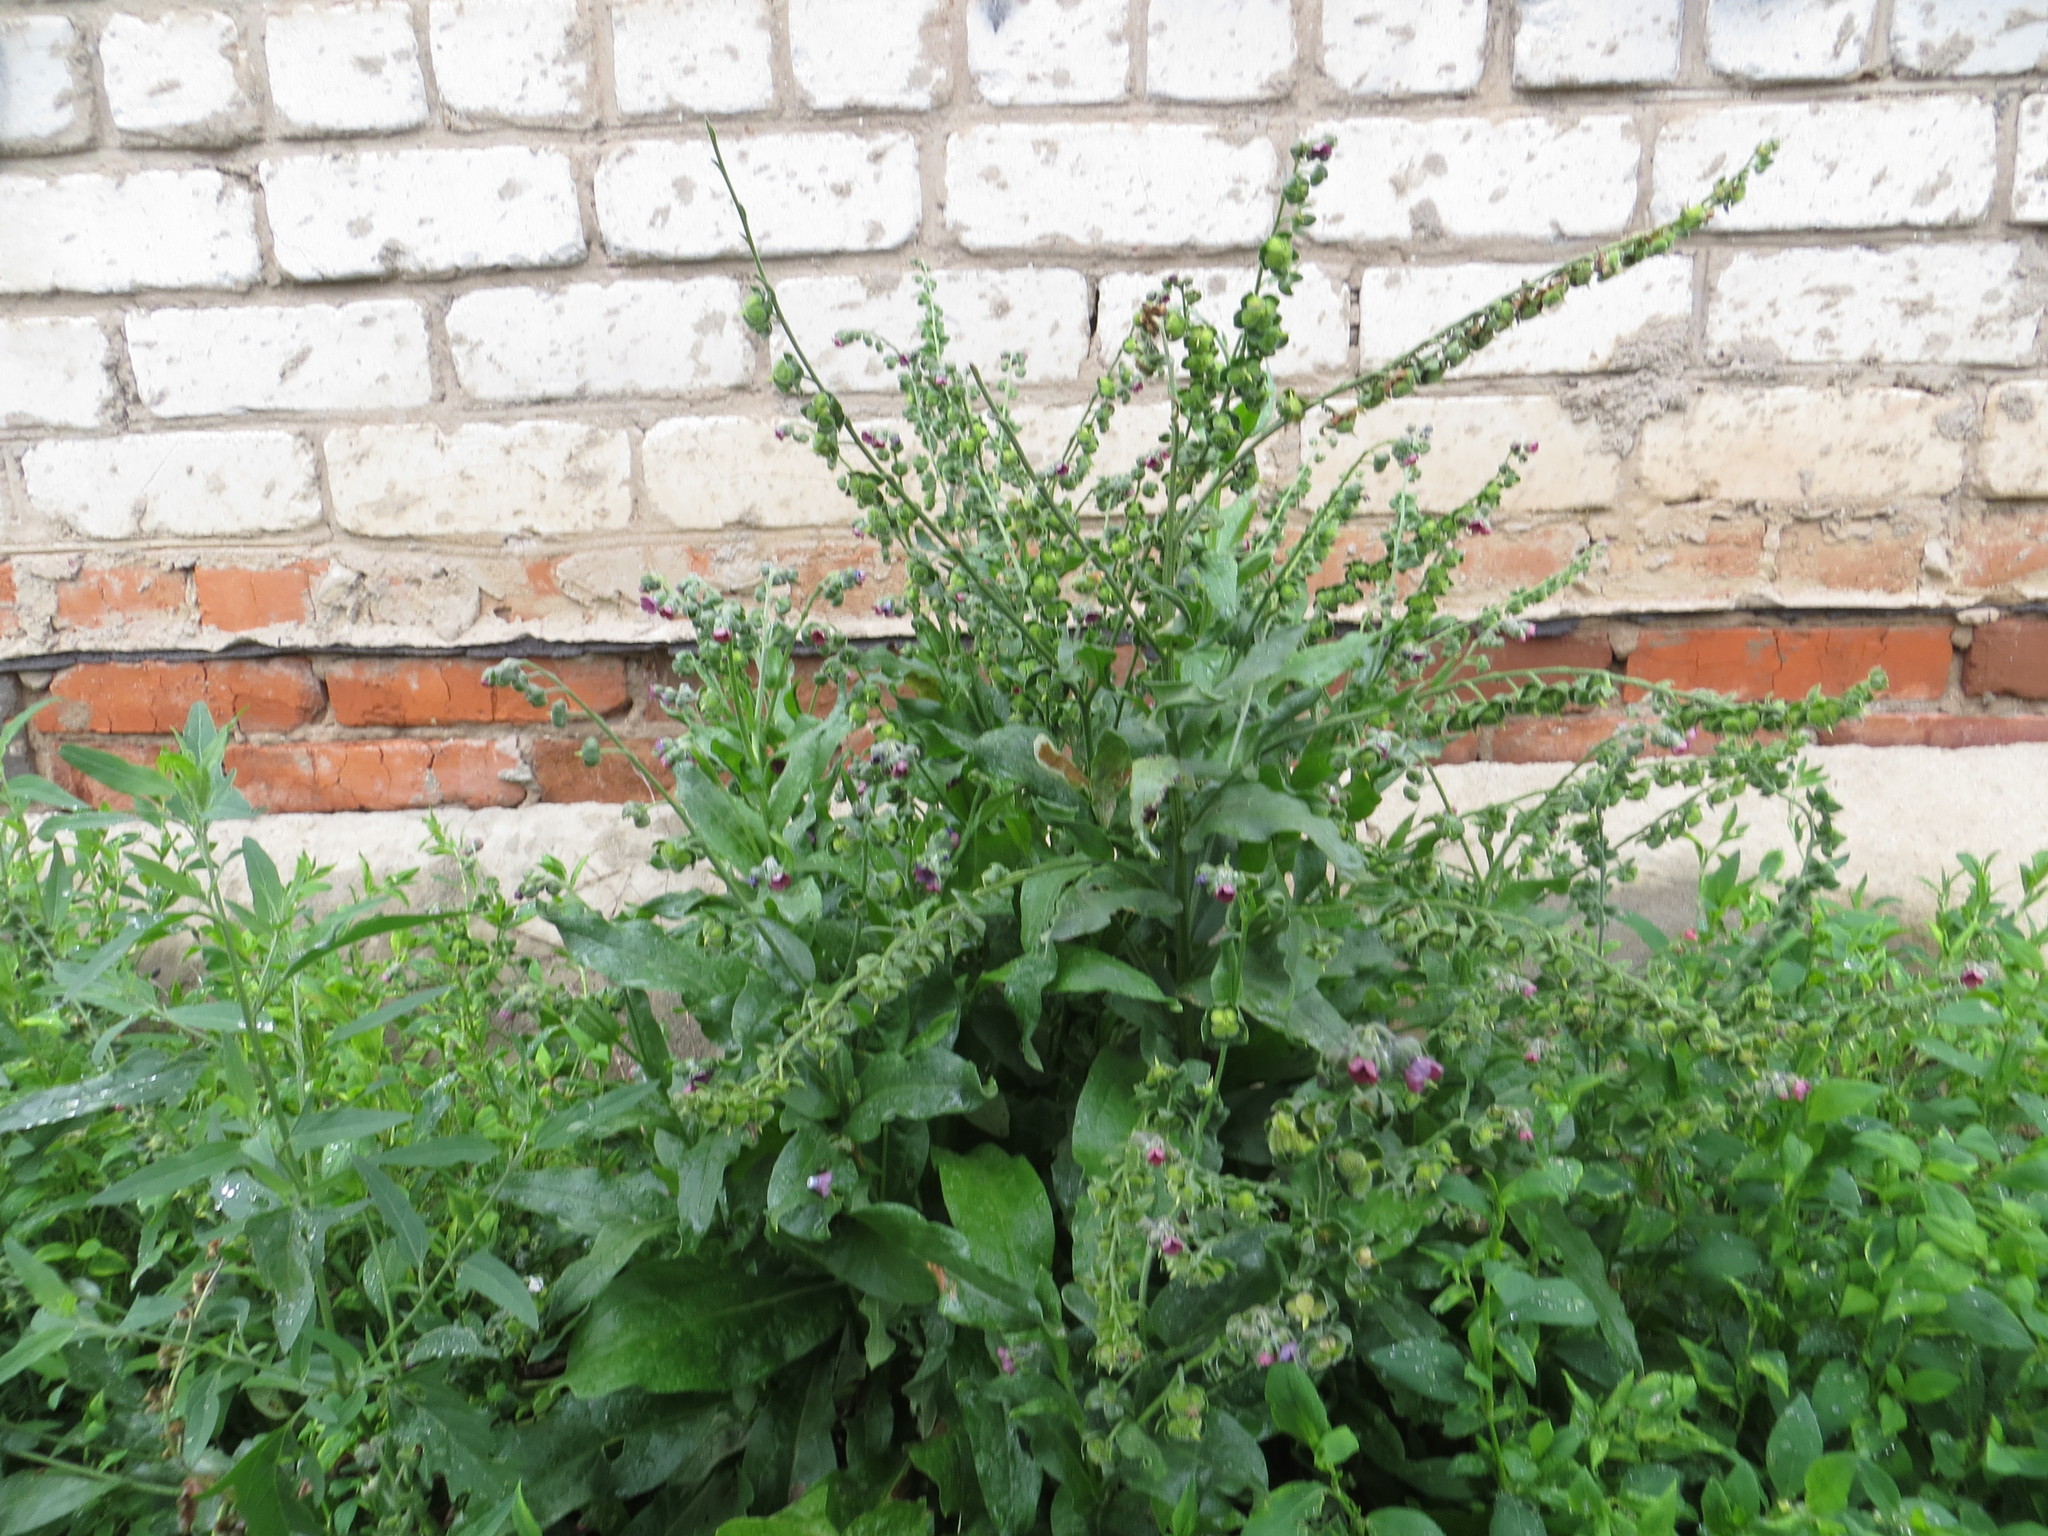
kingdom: Plantae
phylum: Tracheophyta
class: Magnoliopsida
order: Boraginales
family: Boraginaceae
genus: Cynoglossum
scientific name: Cynoglossum officinale
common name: Hound's-tongue
